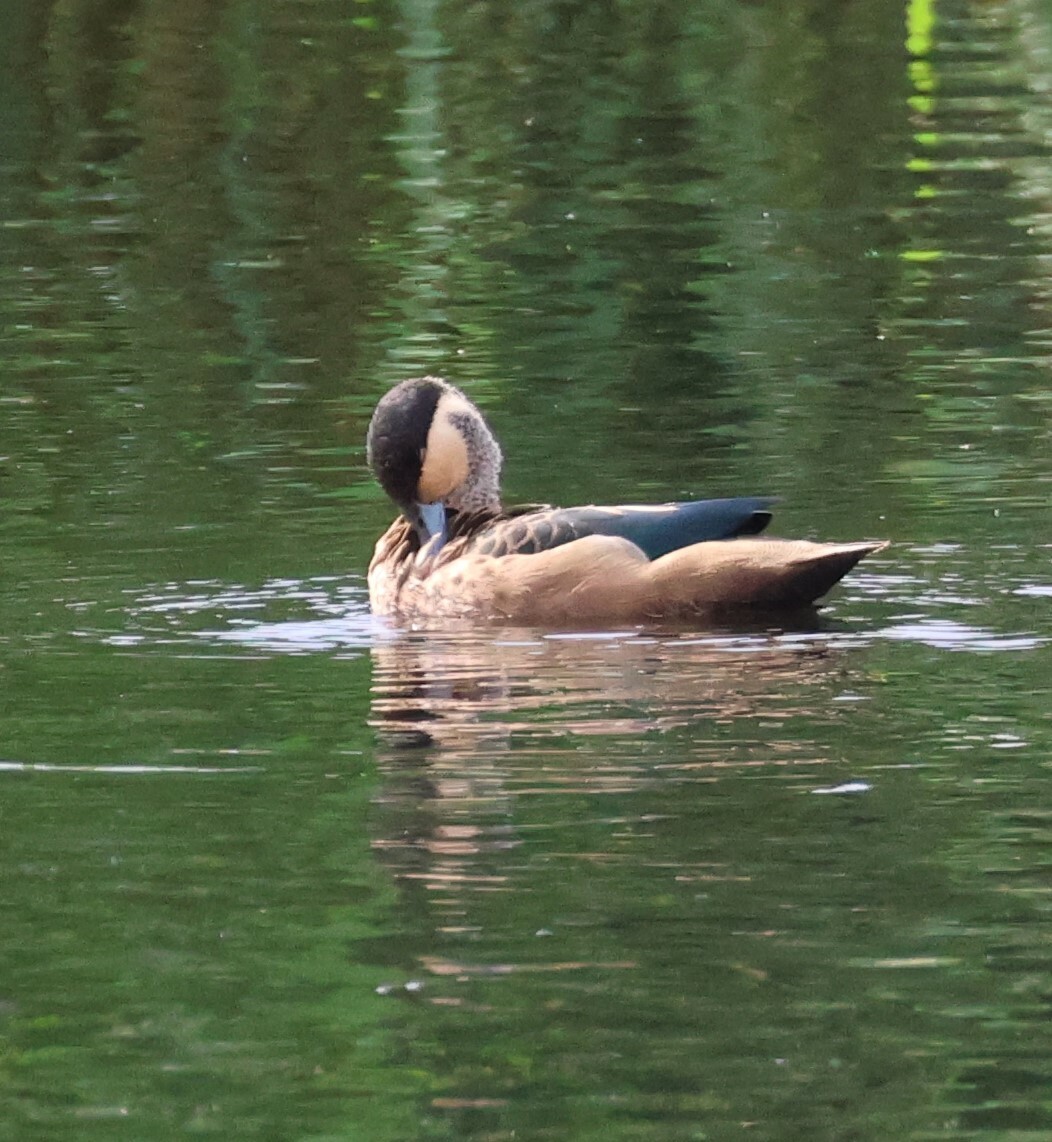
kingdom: Animalia
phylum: Chordata
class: Aves
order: Anseriformes
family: Anatidae
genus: Spatula
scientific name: Spatula hottentota
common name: Blue-billed teal
